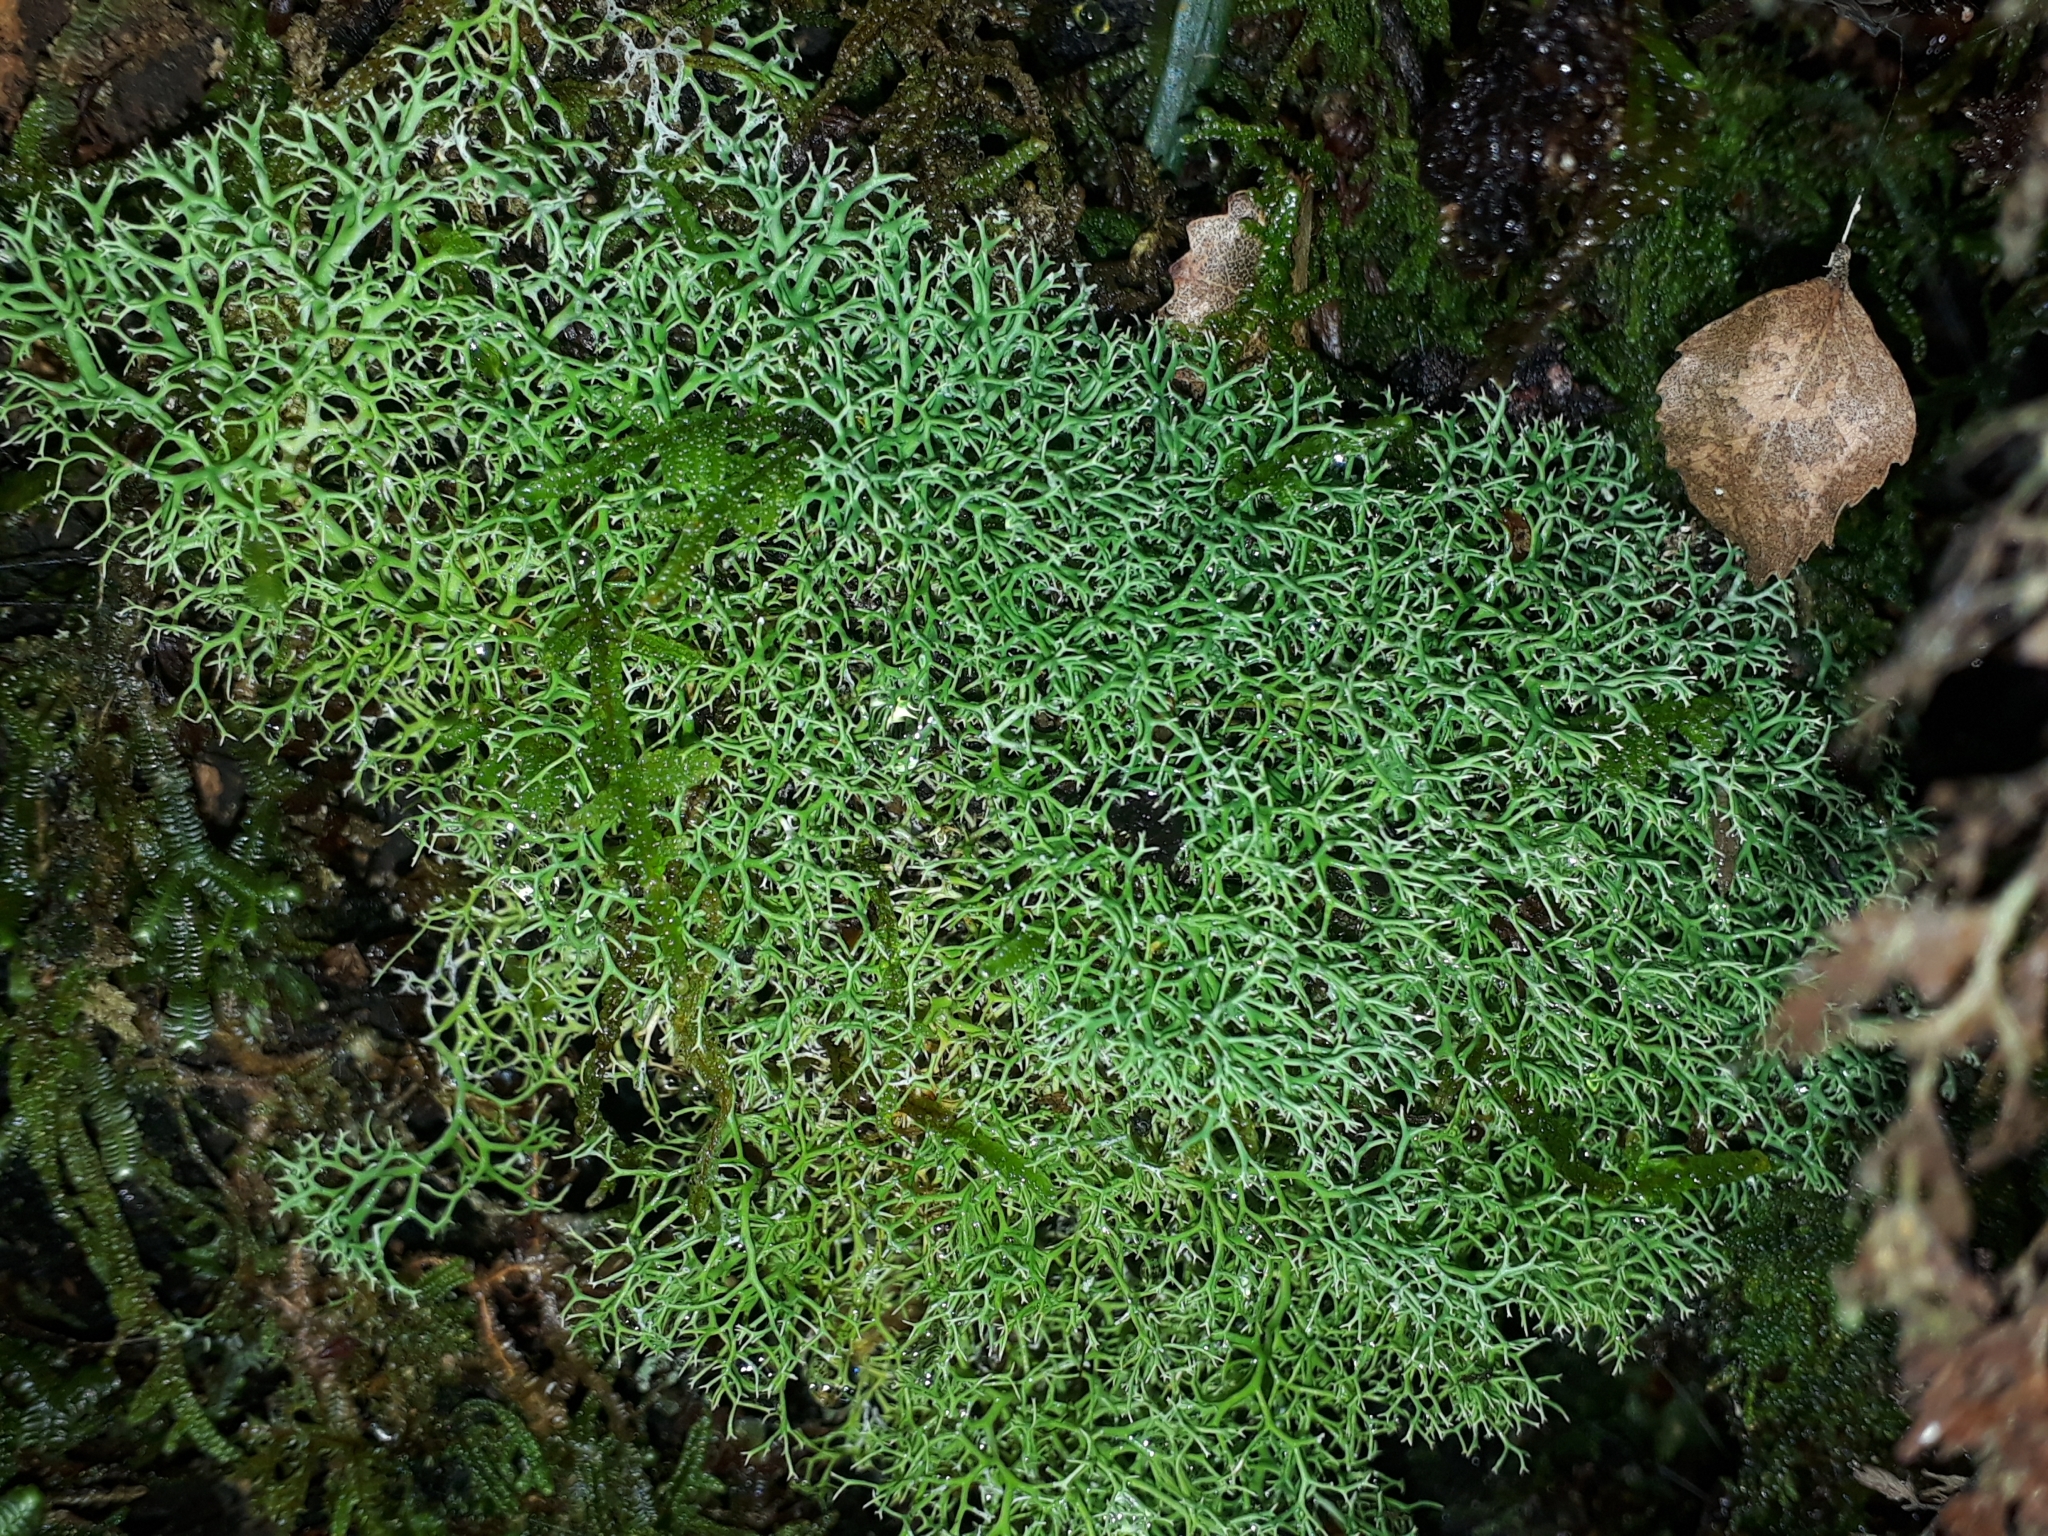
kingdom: Fungi
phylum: Ascomycota
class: Lecanoromycetes
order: Lecanorales
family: Sphaerophoraceae
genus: Leifidium
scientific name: Leifidium tenerum
